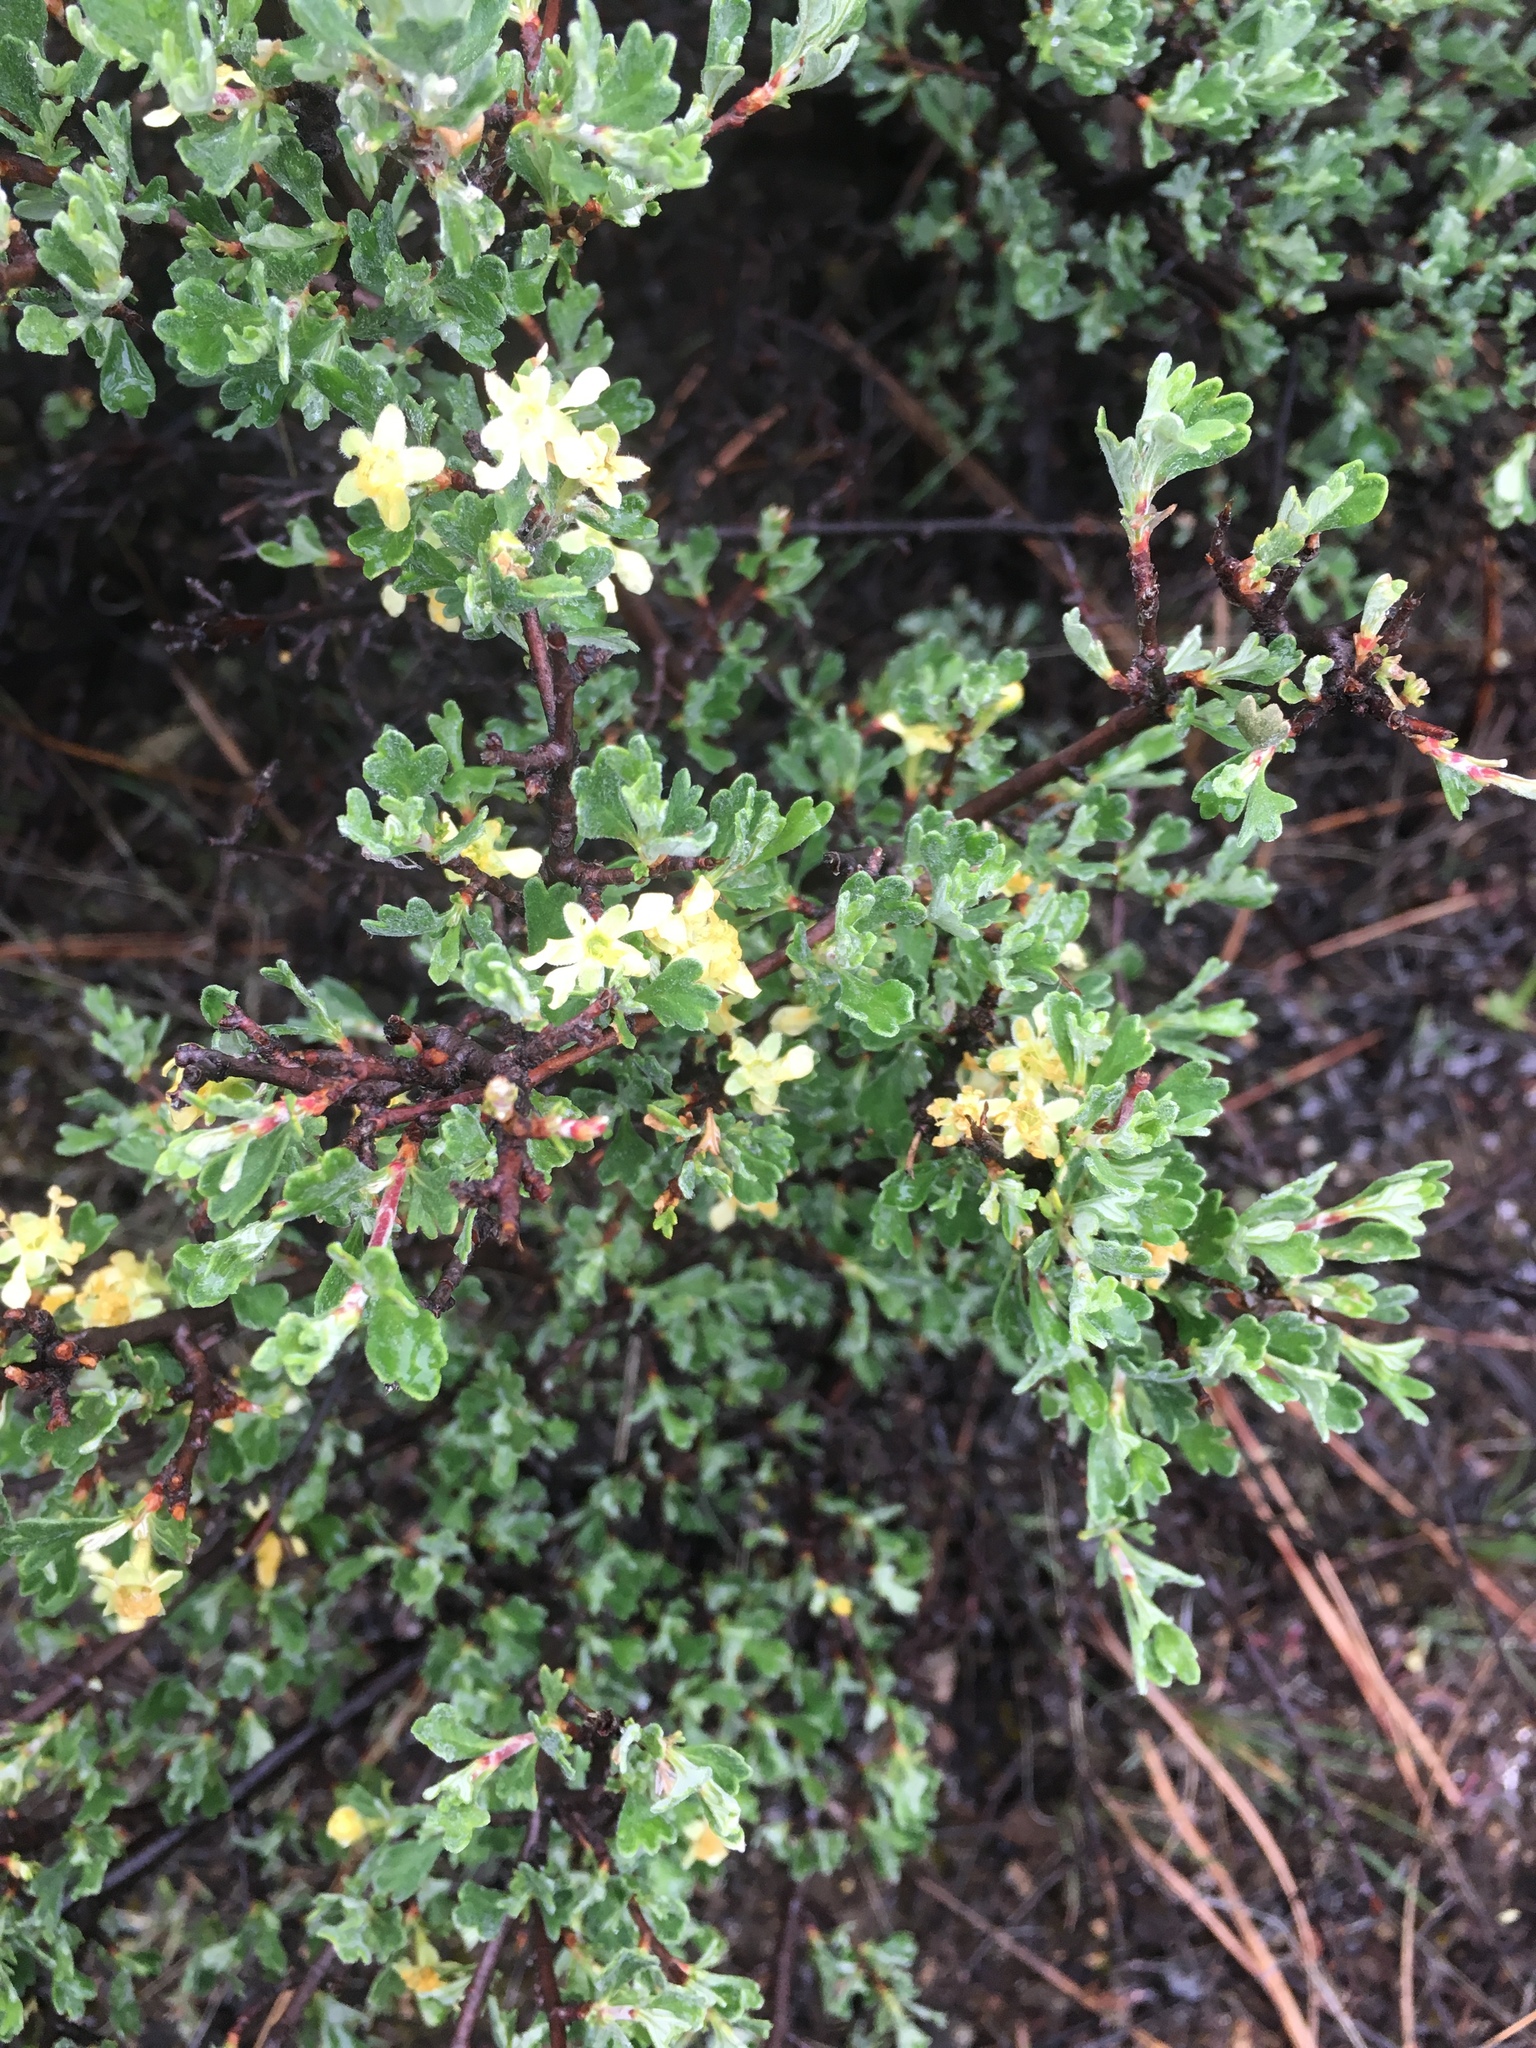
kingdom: Plantae
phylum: Tracheophyta
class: Magnoliopsida
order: Rosales
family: Rosaceae
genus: Purshia
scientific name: Purshia tridentata
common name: Antelope bitterbrush
